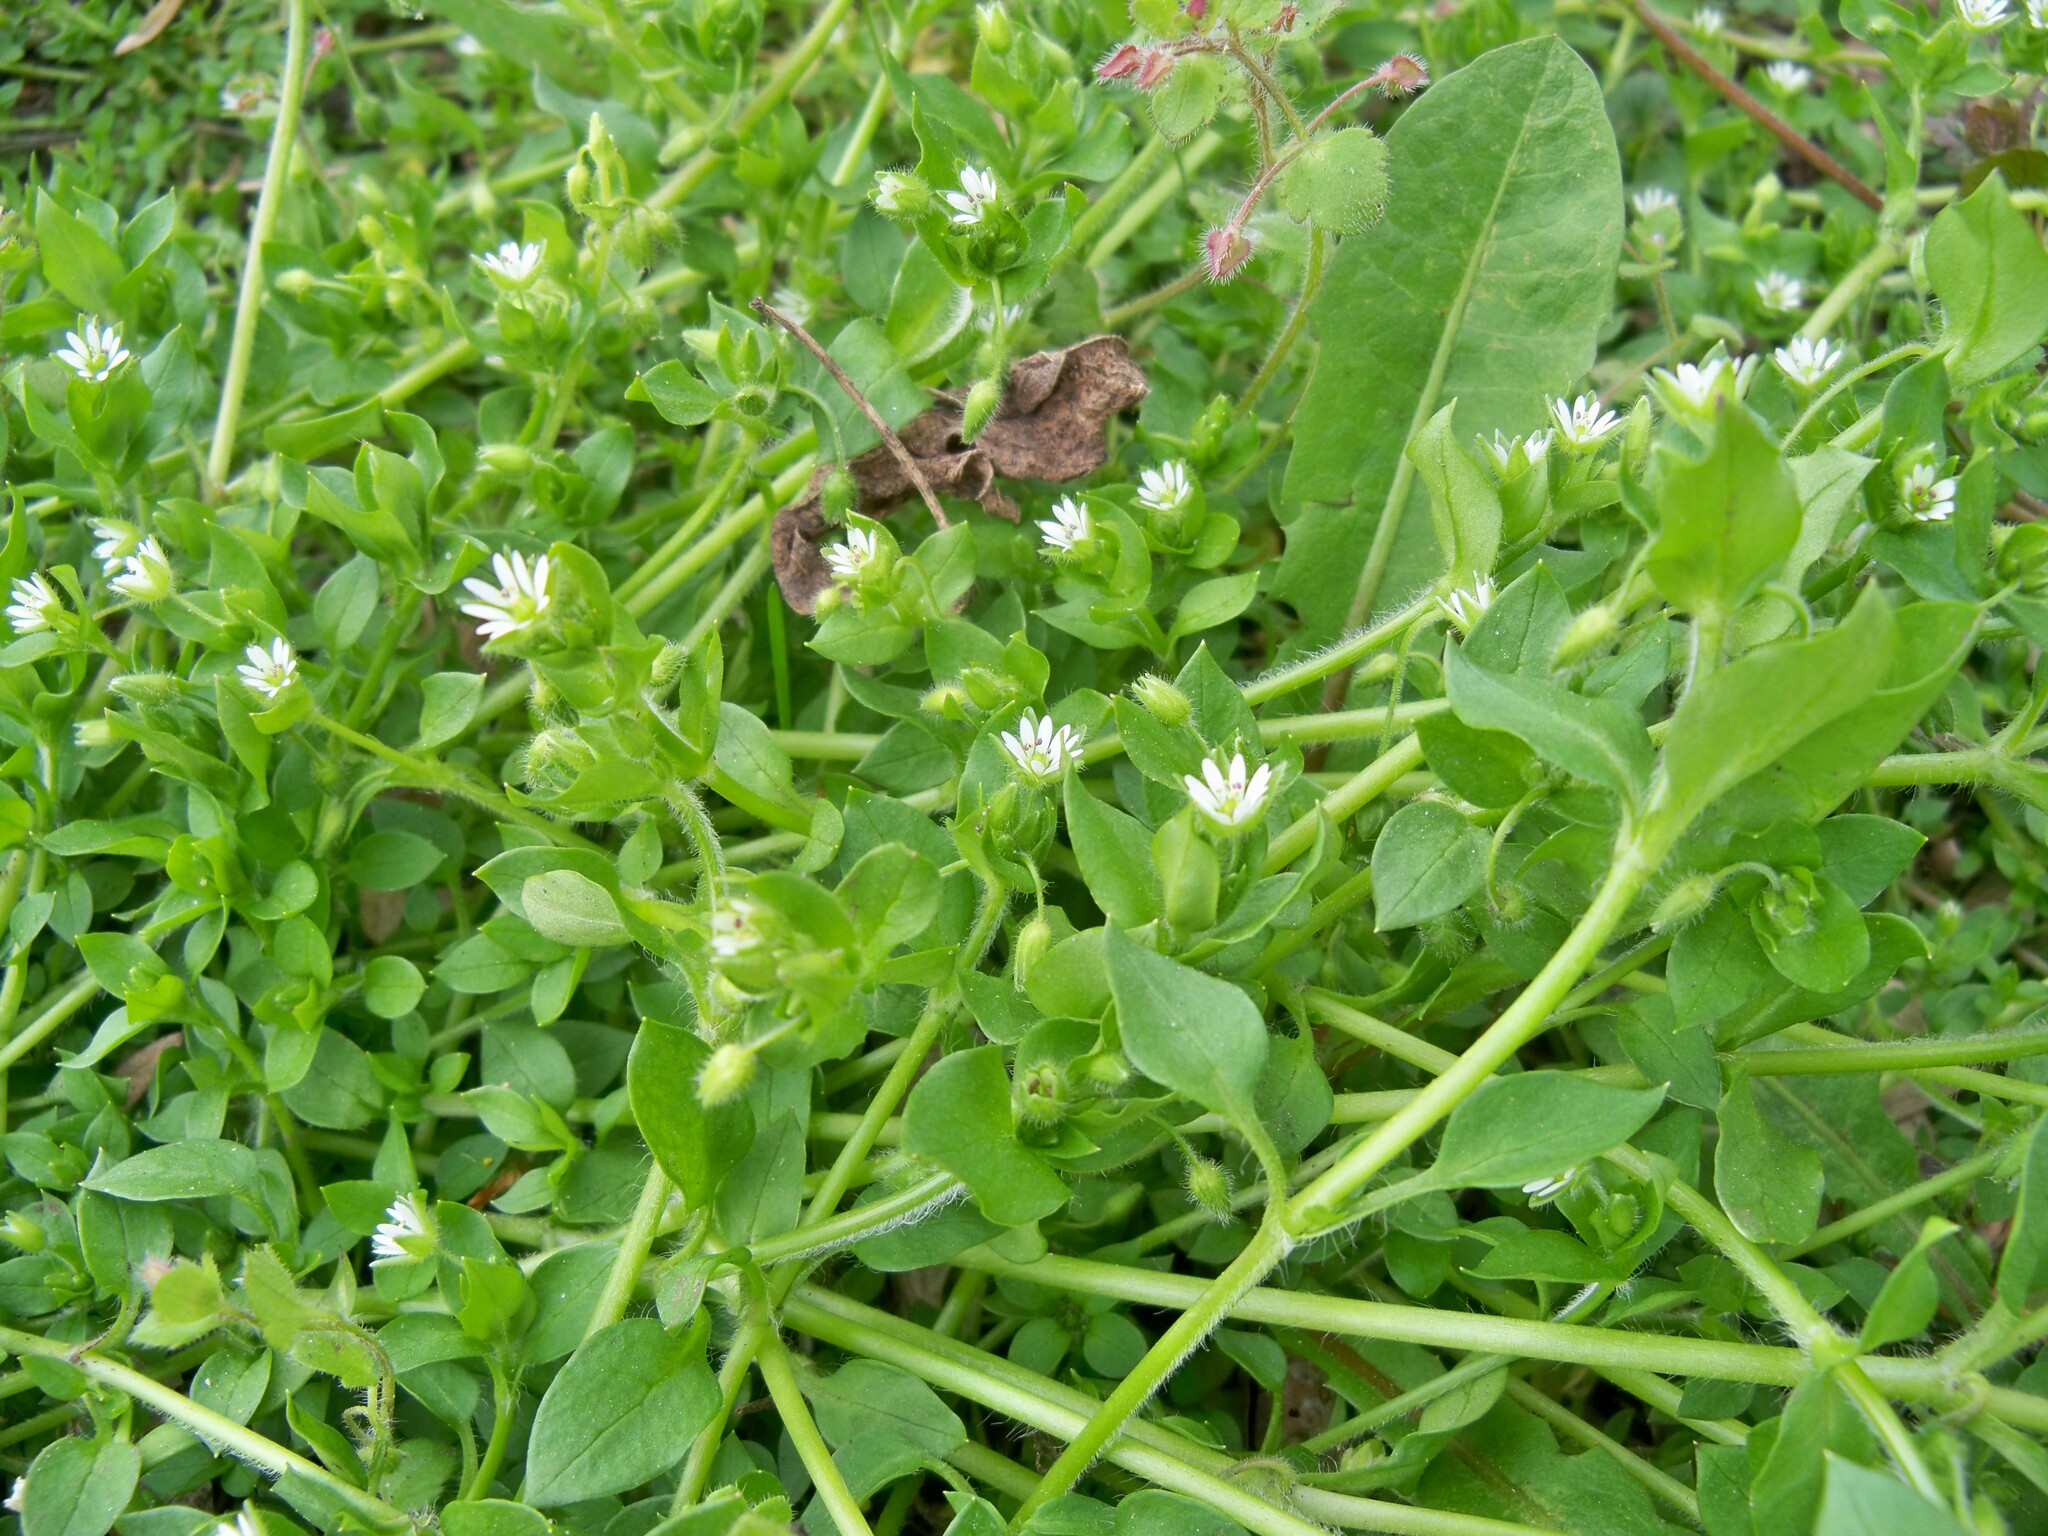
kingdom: Plantae
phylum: Tracheophyta
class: Magnoliopsida
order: Caryophyllales
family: Caryophyllaceae
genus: Stellaria
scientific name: Stellaria media
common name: Common chickweed
